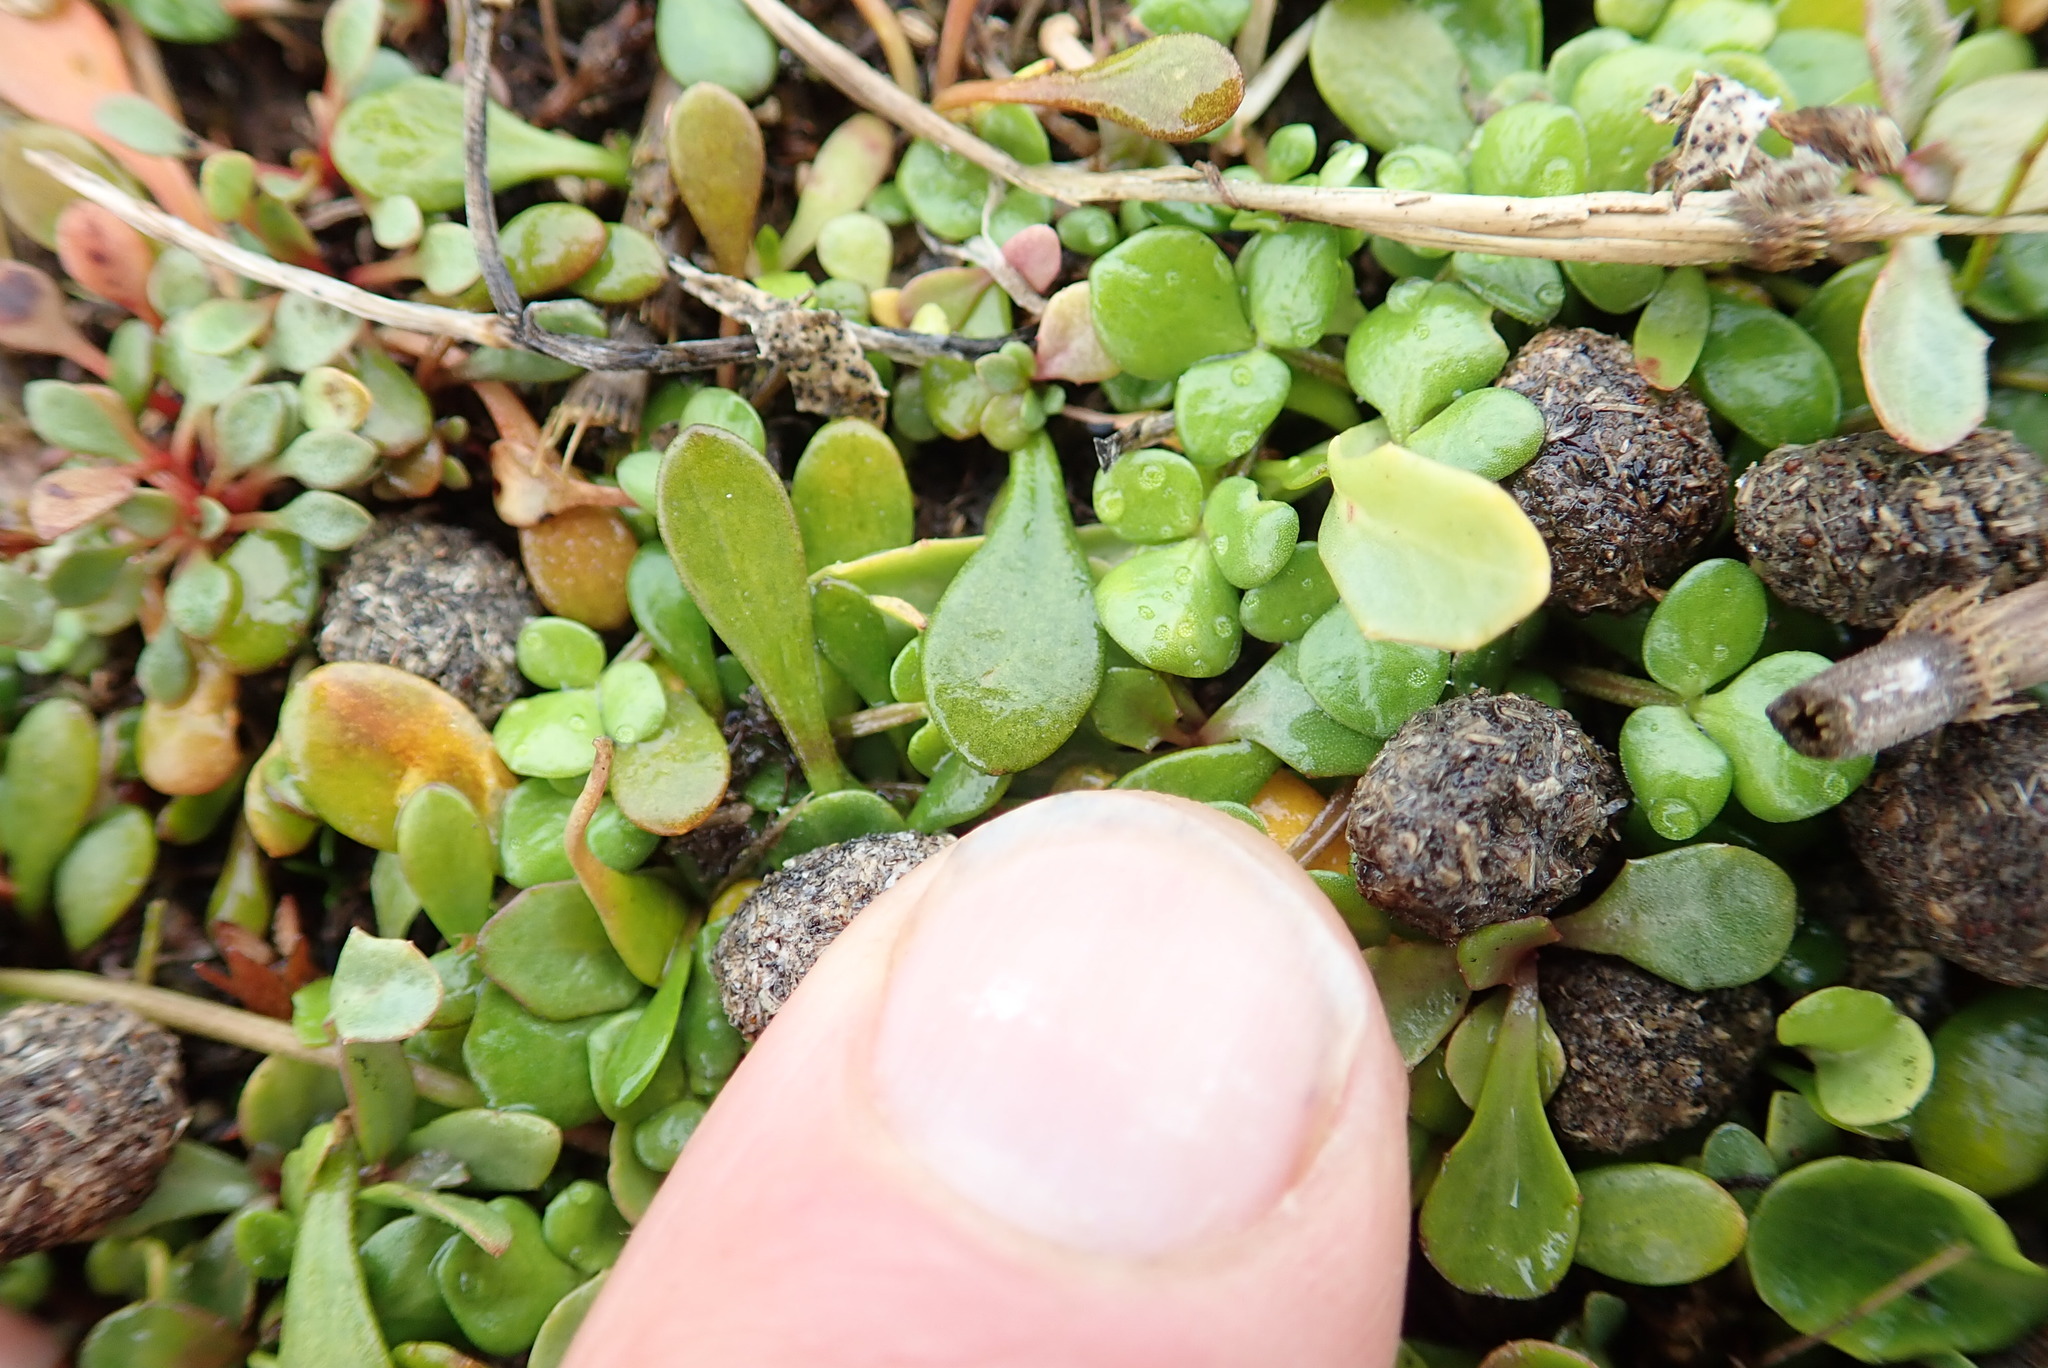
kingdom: Plantae
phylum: Tracheophyta
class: Magnoliopsida
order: Ranunculales
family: Ranunculaceae
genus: Ranunculus
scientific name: Ranunculus acaulis
